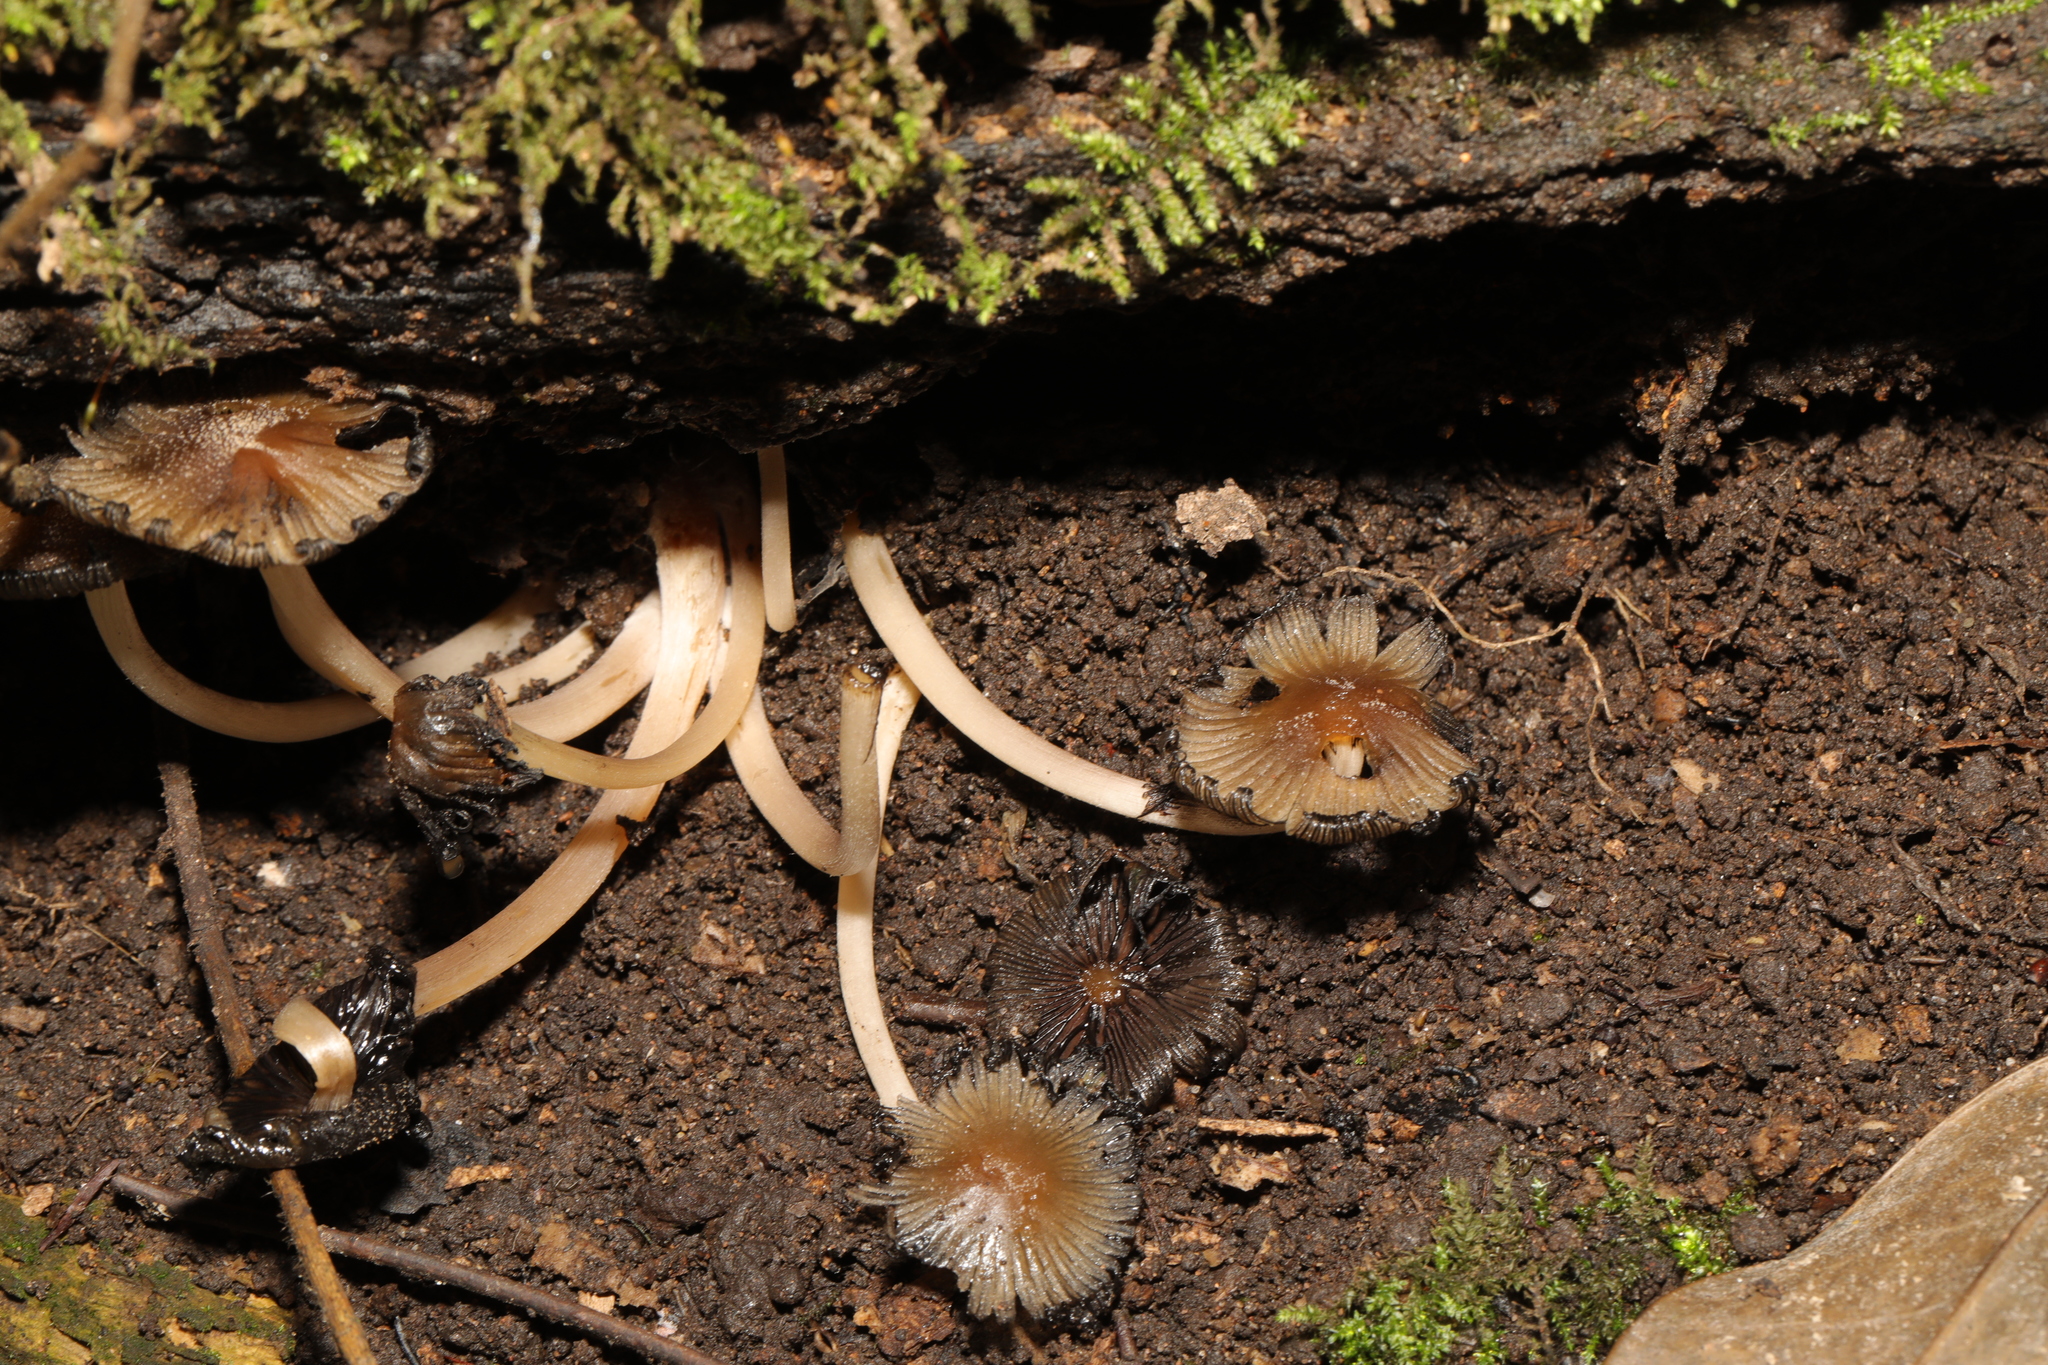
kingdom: Fungi
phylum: Basidiomycota
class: Agaricomycetes
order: Agaricales
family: Psathyrellaceae
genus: Coprinellus
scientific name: Coprinellus micaceus
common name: Glistening ink-cap
